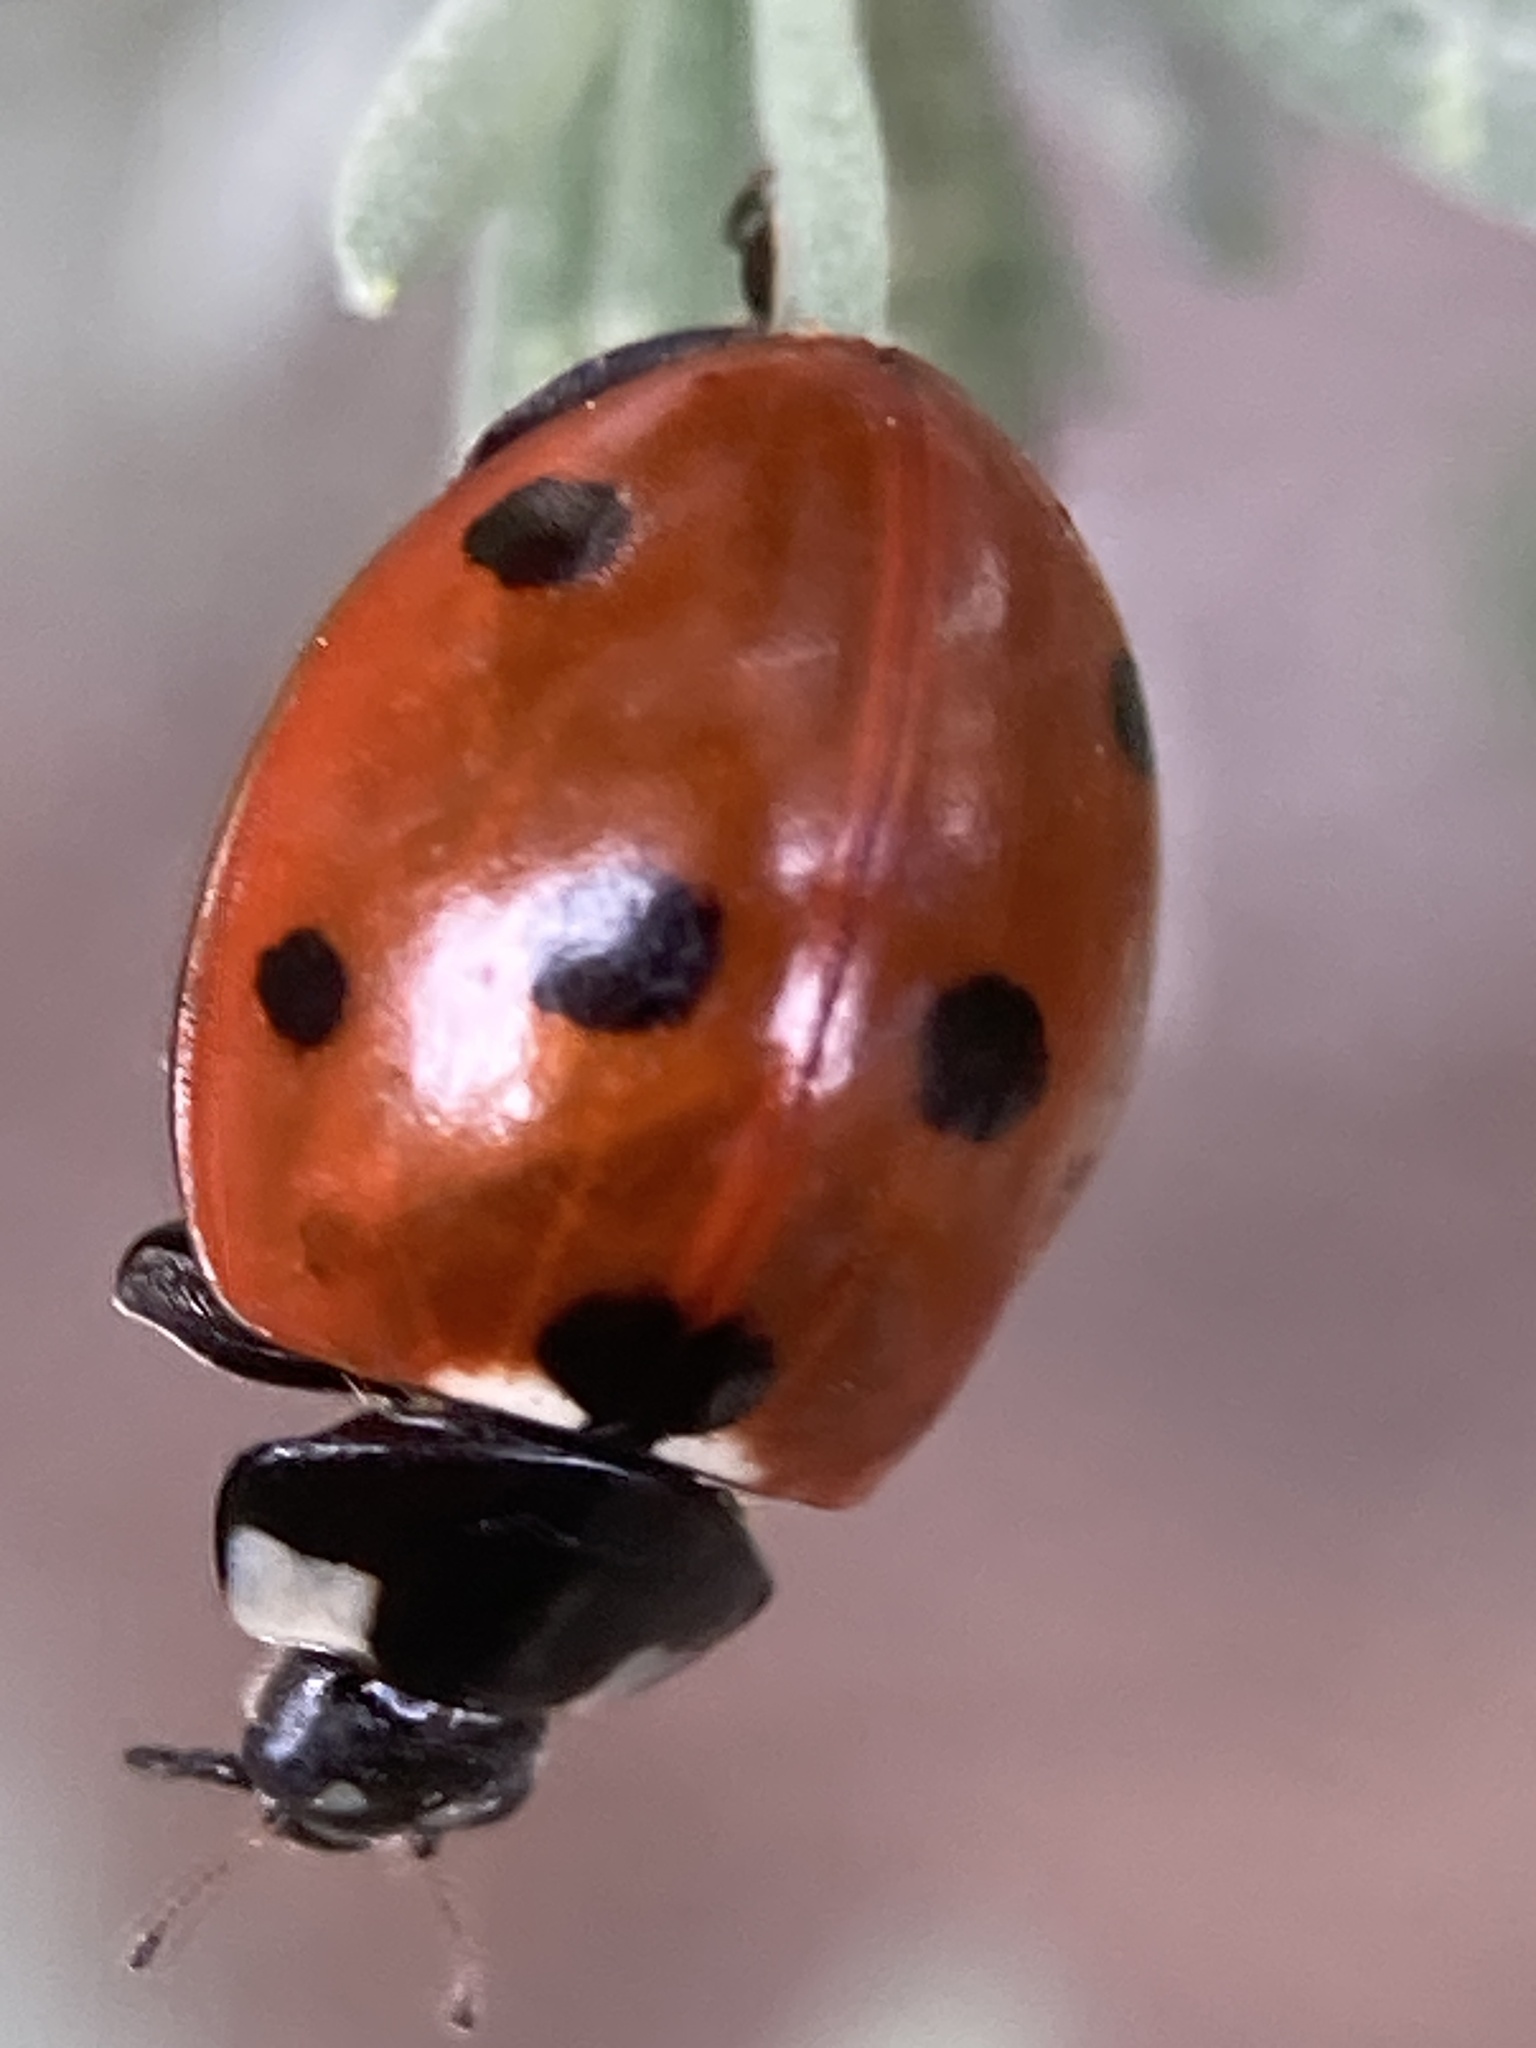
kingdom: Animalia
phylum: Arthropoda
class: Insecta
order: Coleoptera
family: Coccinellidae
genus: Coccinella
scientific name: Coccinella septempunctata
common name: Sevenspotted lady beetle
